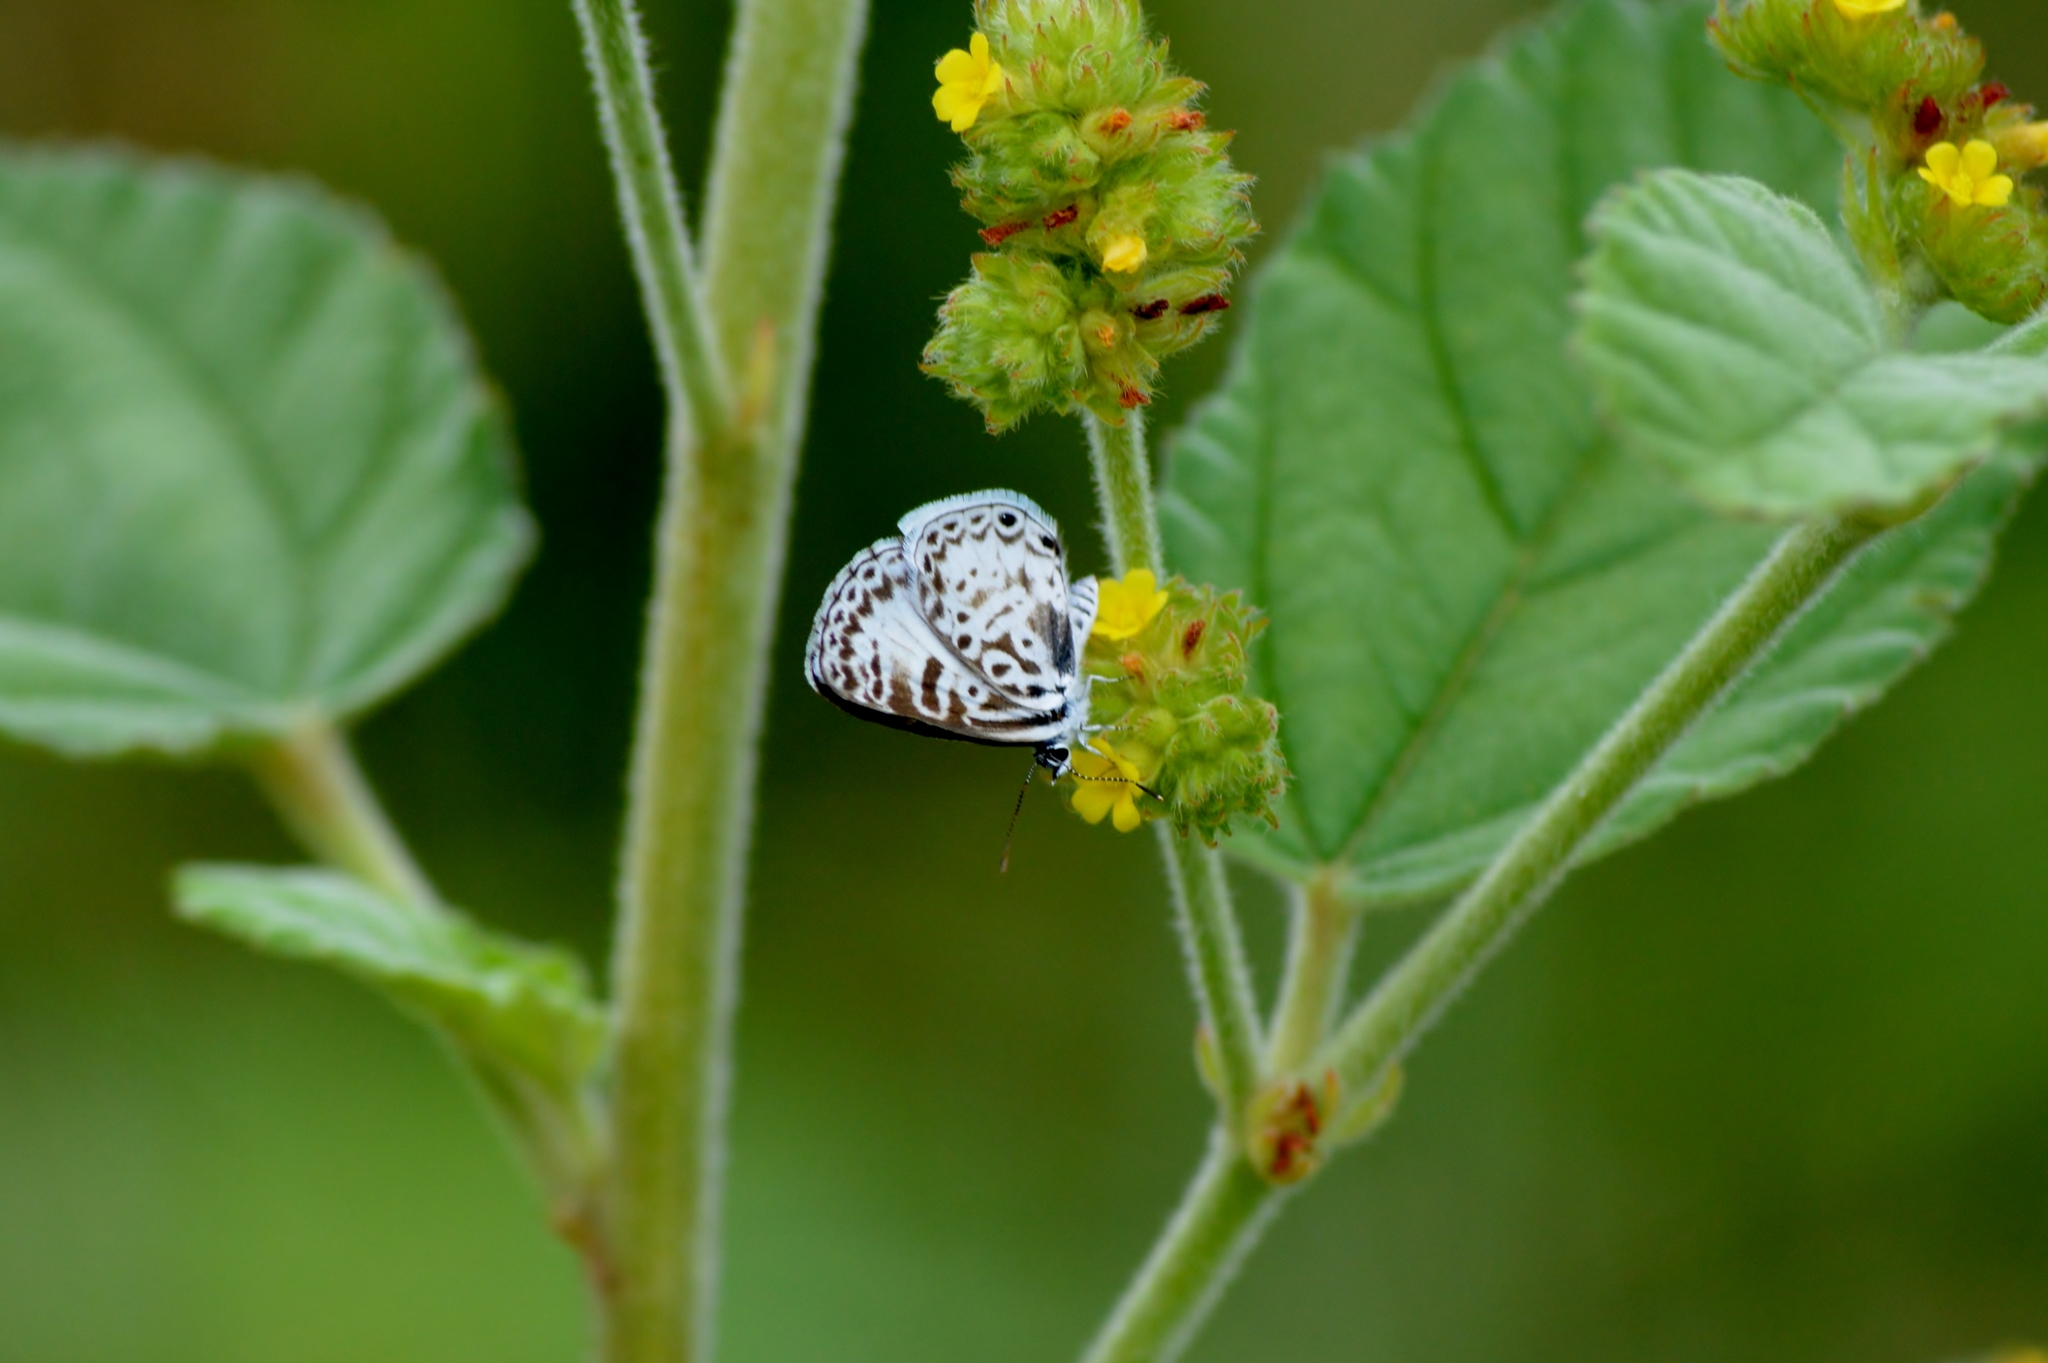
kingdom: Animalia
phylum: Arthropoda
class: Insecta
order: Lepidoptera
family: Lycaenidae
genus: Leptotes
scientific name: Leptotes cassius
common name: Cassius blue
